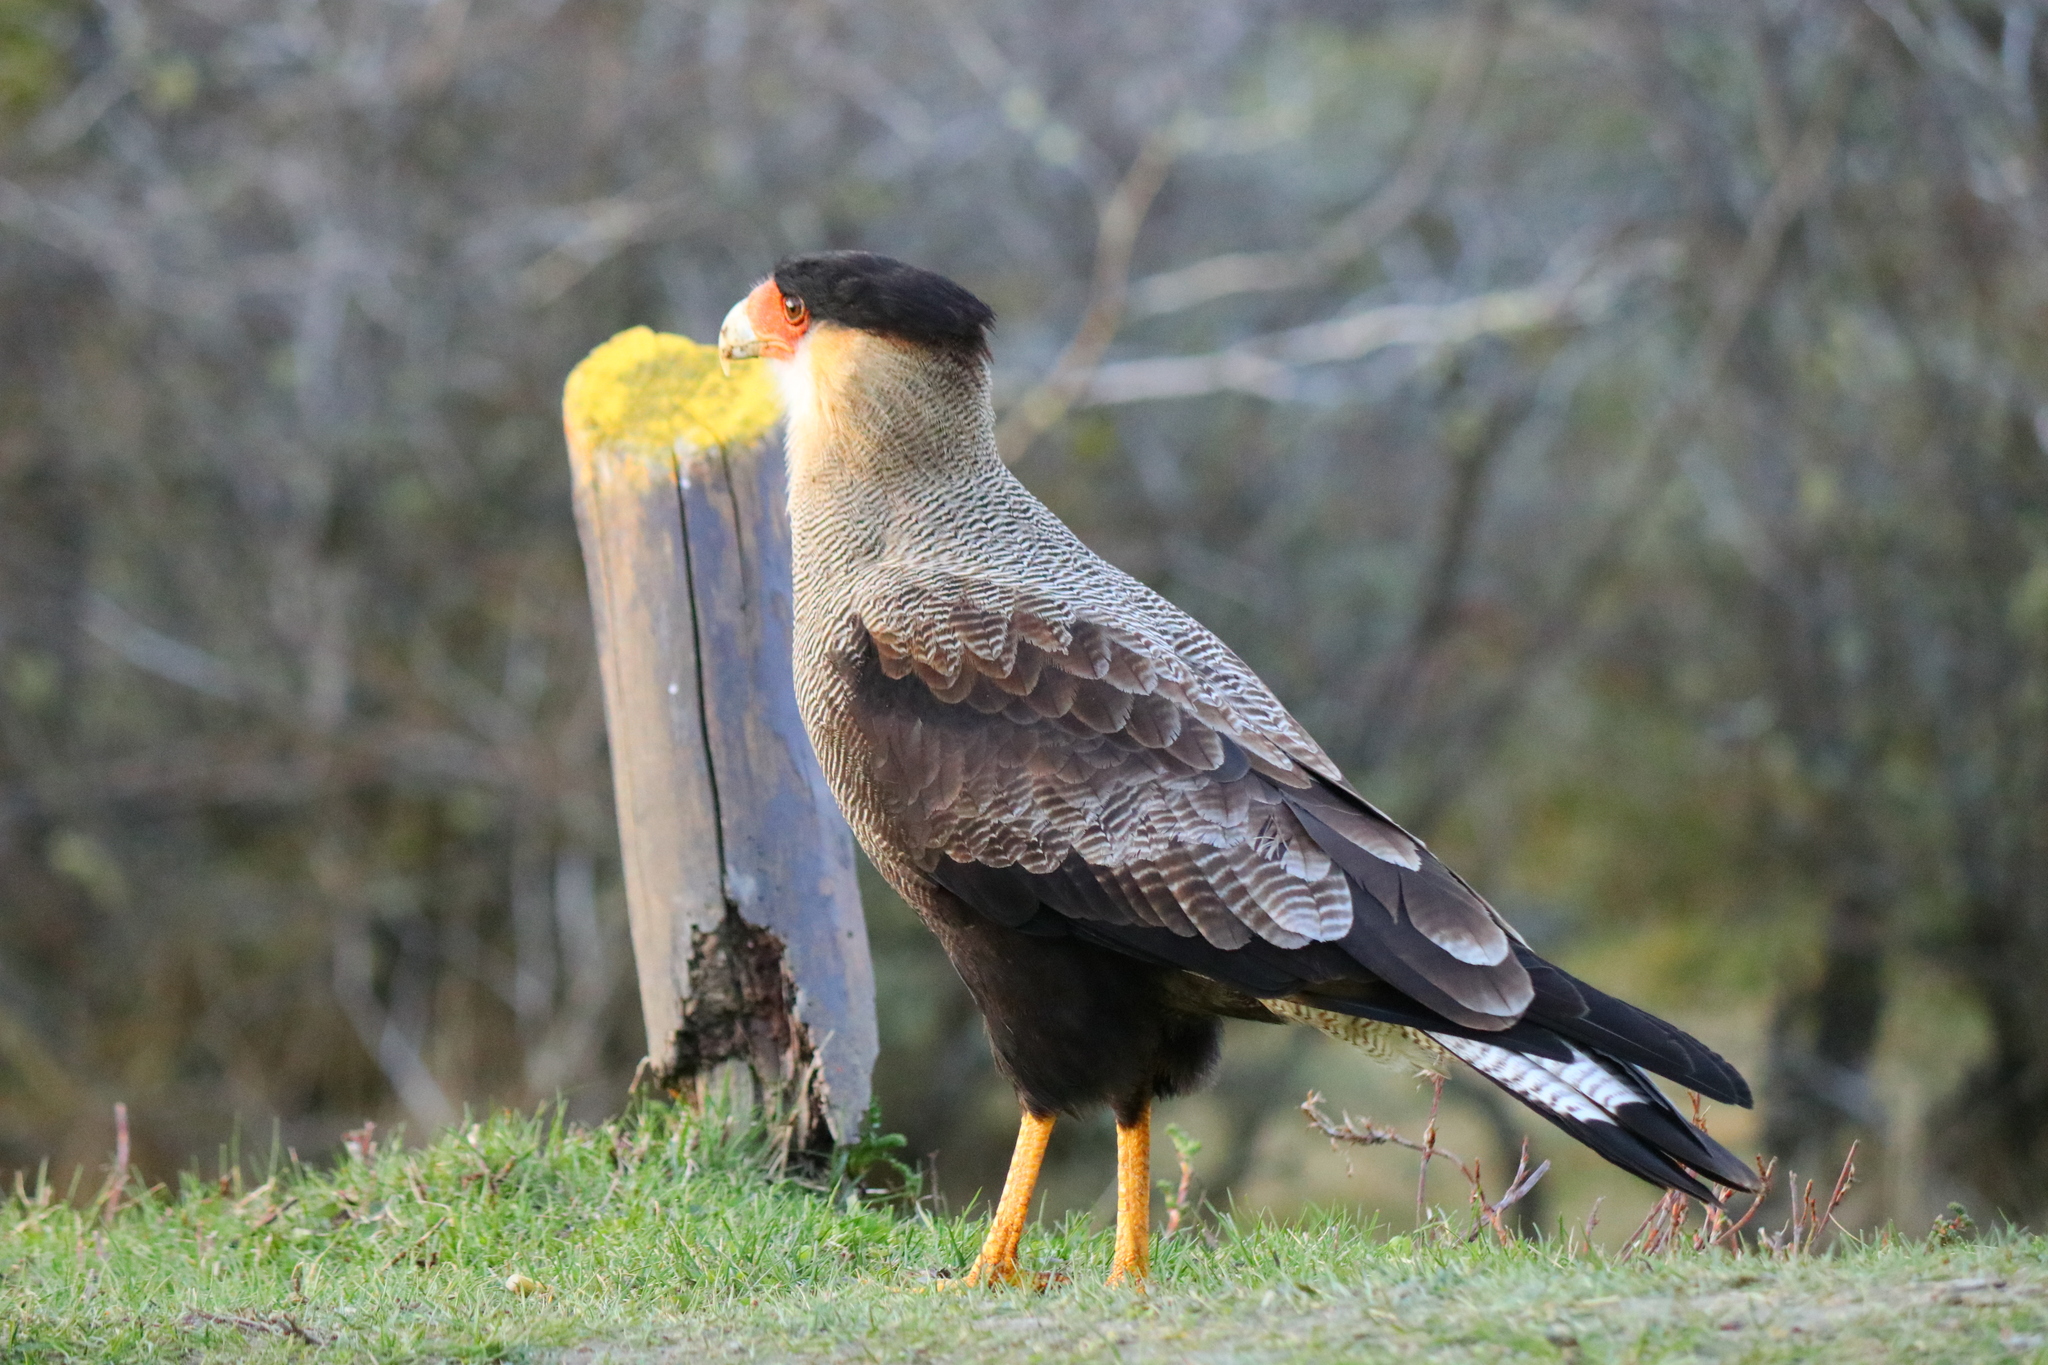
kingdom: Animalia
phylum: Chordata
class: Aves
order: Falconiformes
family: Falconidae
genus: Caracara
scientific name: Caracara plancus
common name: Southern caracara
